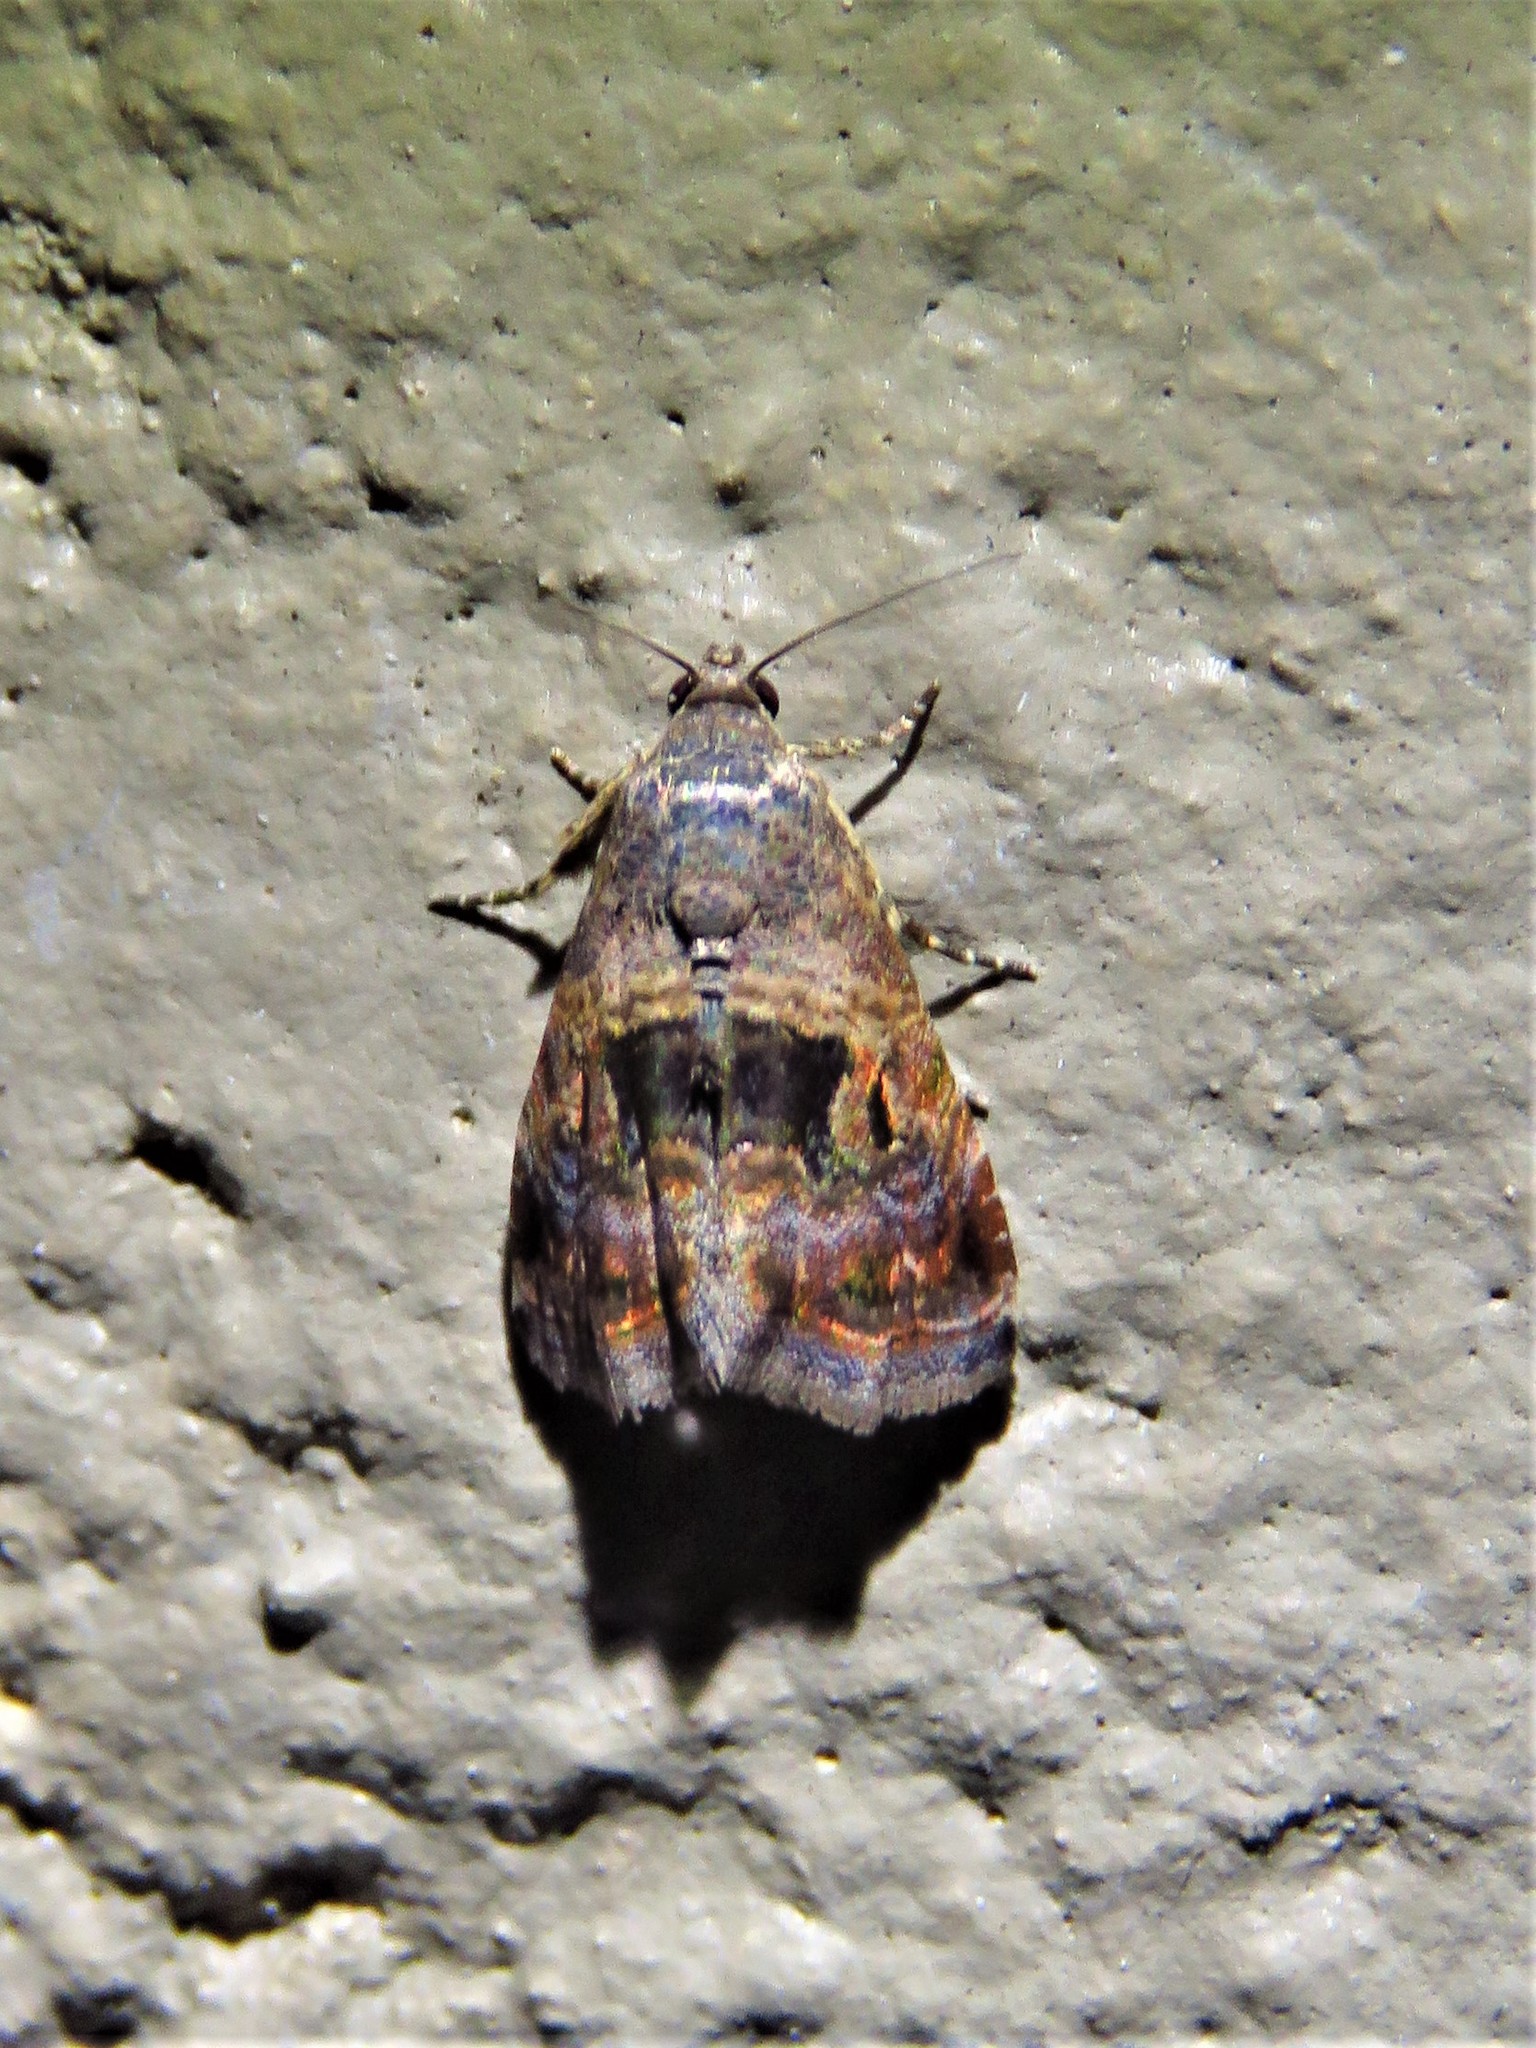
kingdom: Animalia
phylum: Arthropoda
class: Insecta
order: Lepidoptera
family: Noctuidae
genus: Tripudia
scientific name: Tripudia quadrifera
